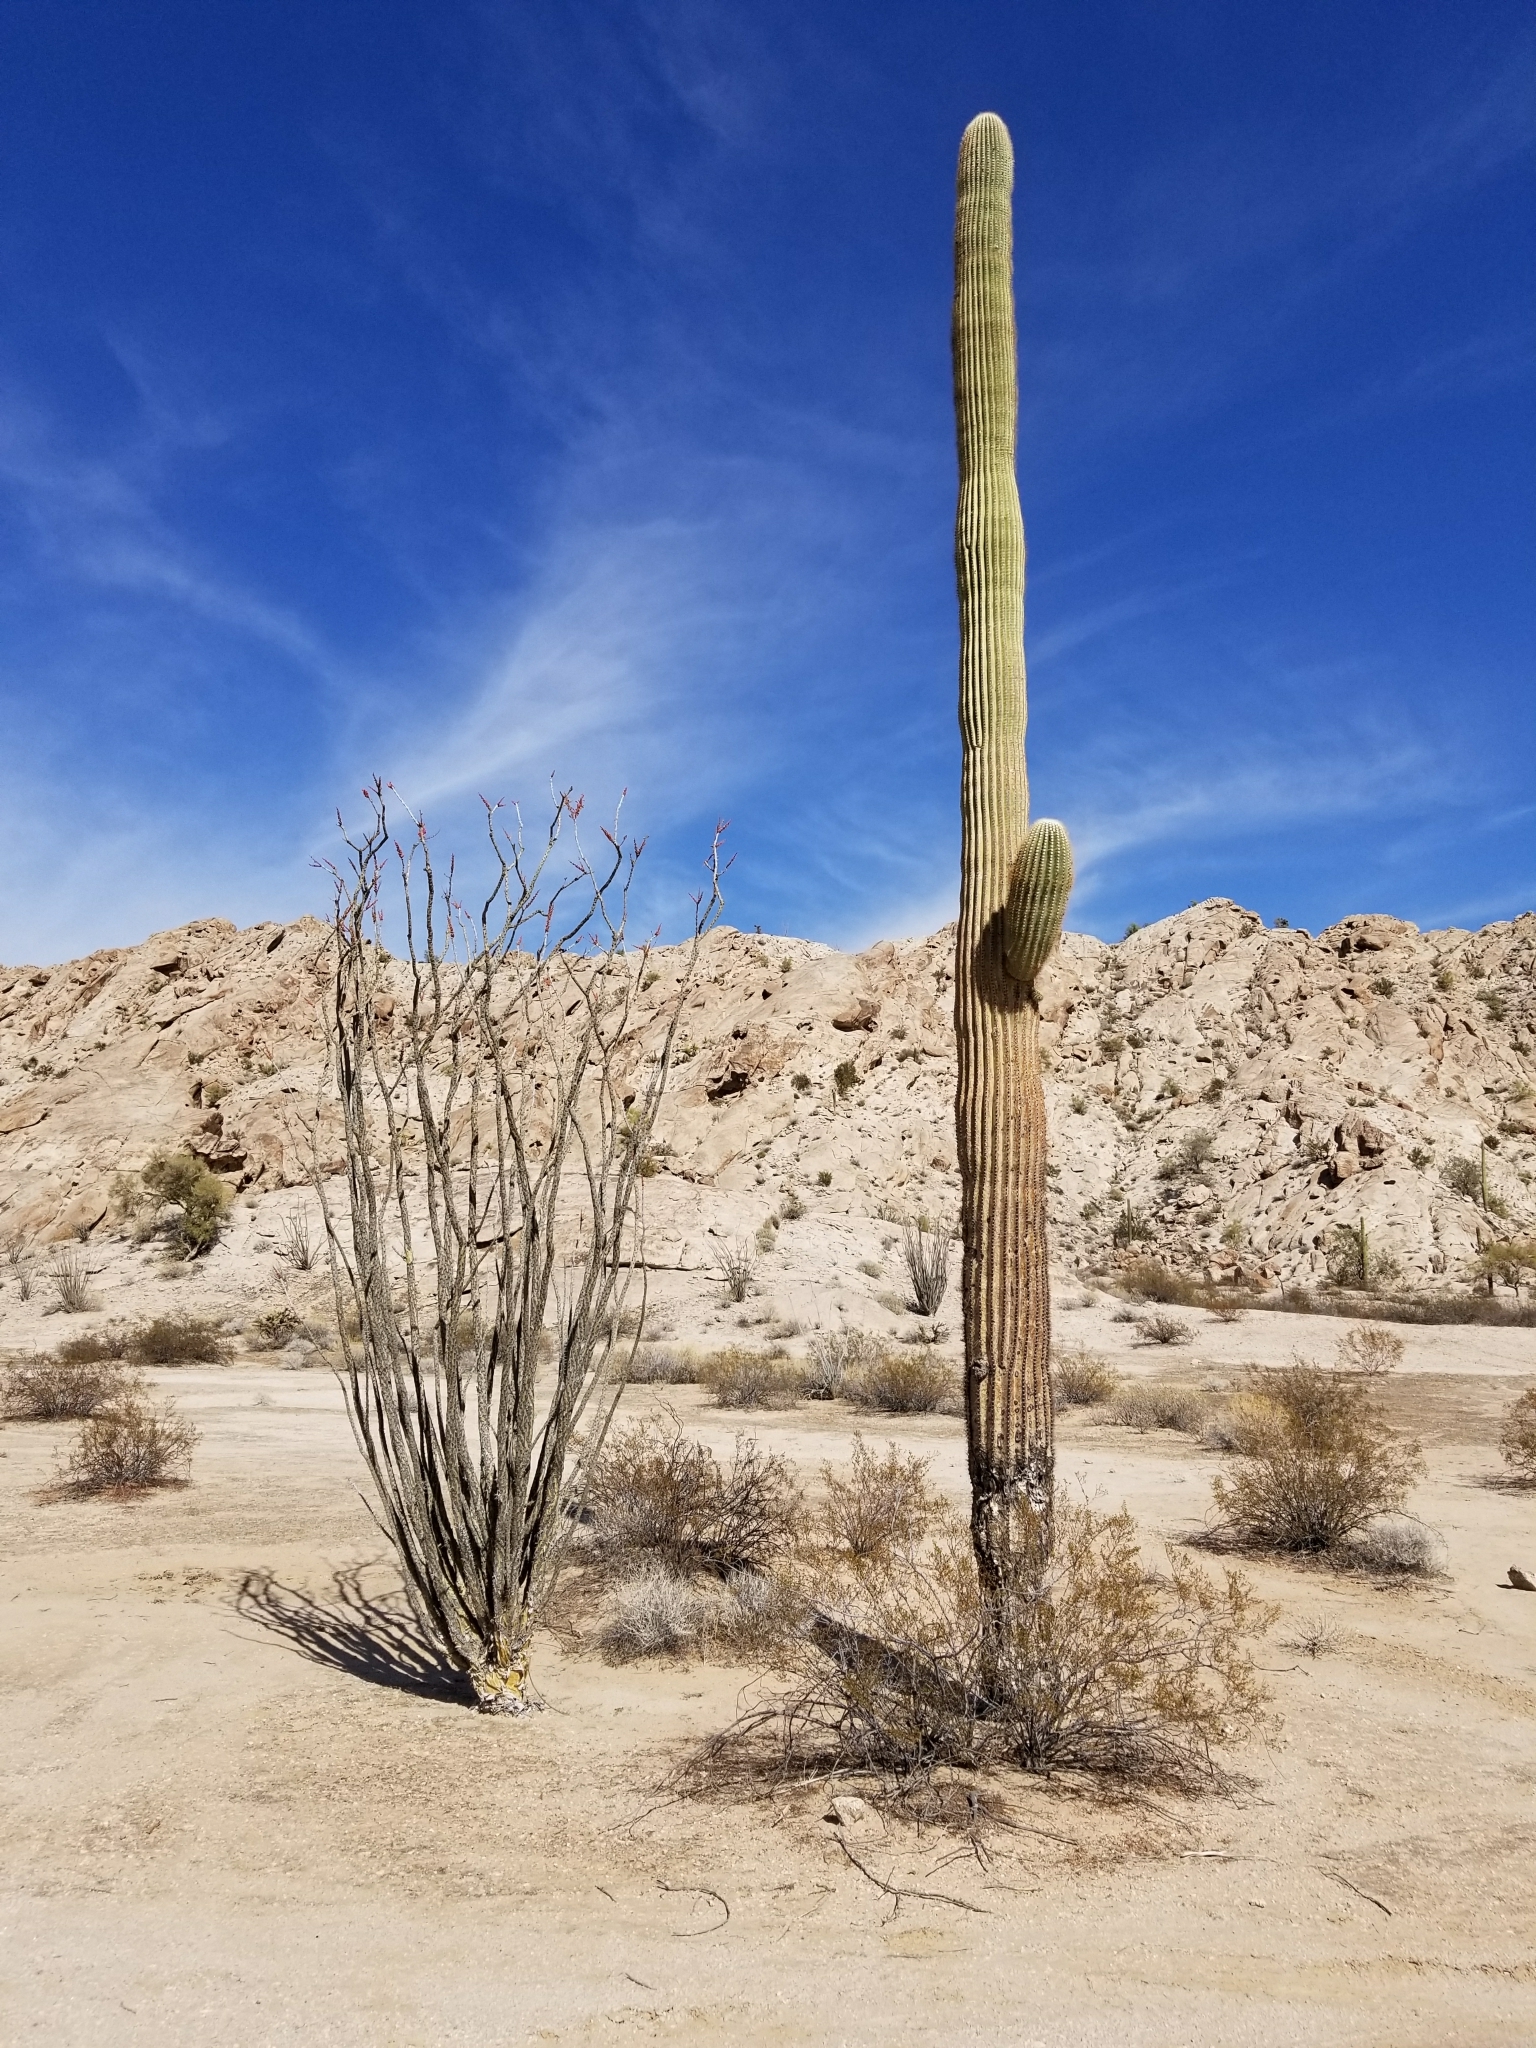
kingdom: Plantae
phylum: Tracheophyta
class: Magnoliopsida
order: Caryophyllales
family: Cactaceae
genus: Carnegiea
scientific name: Carnegiea gigantea
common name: Saguaro
